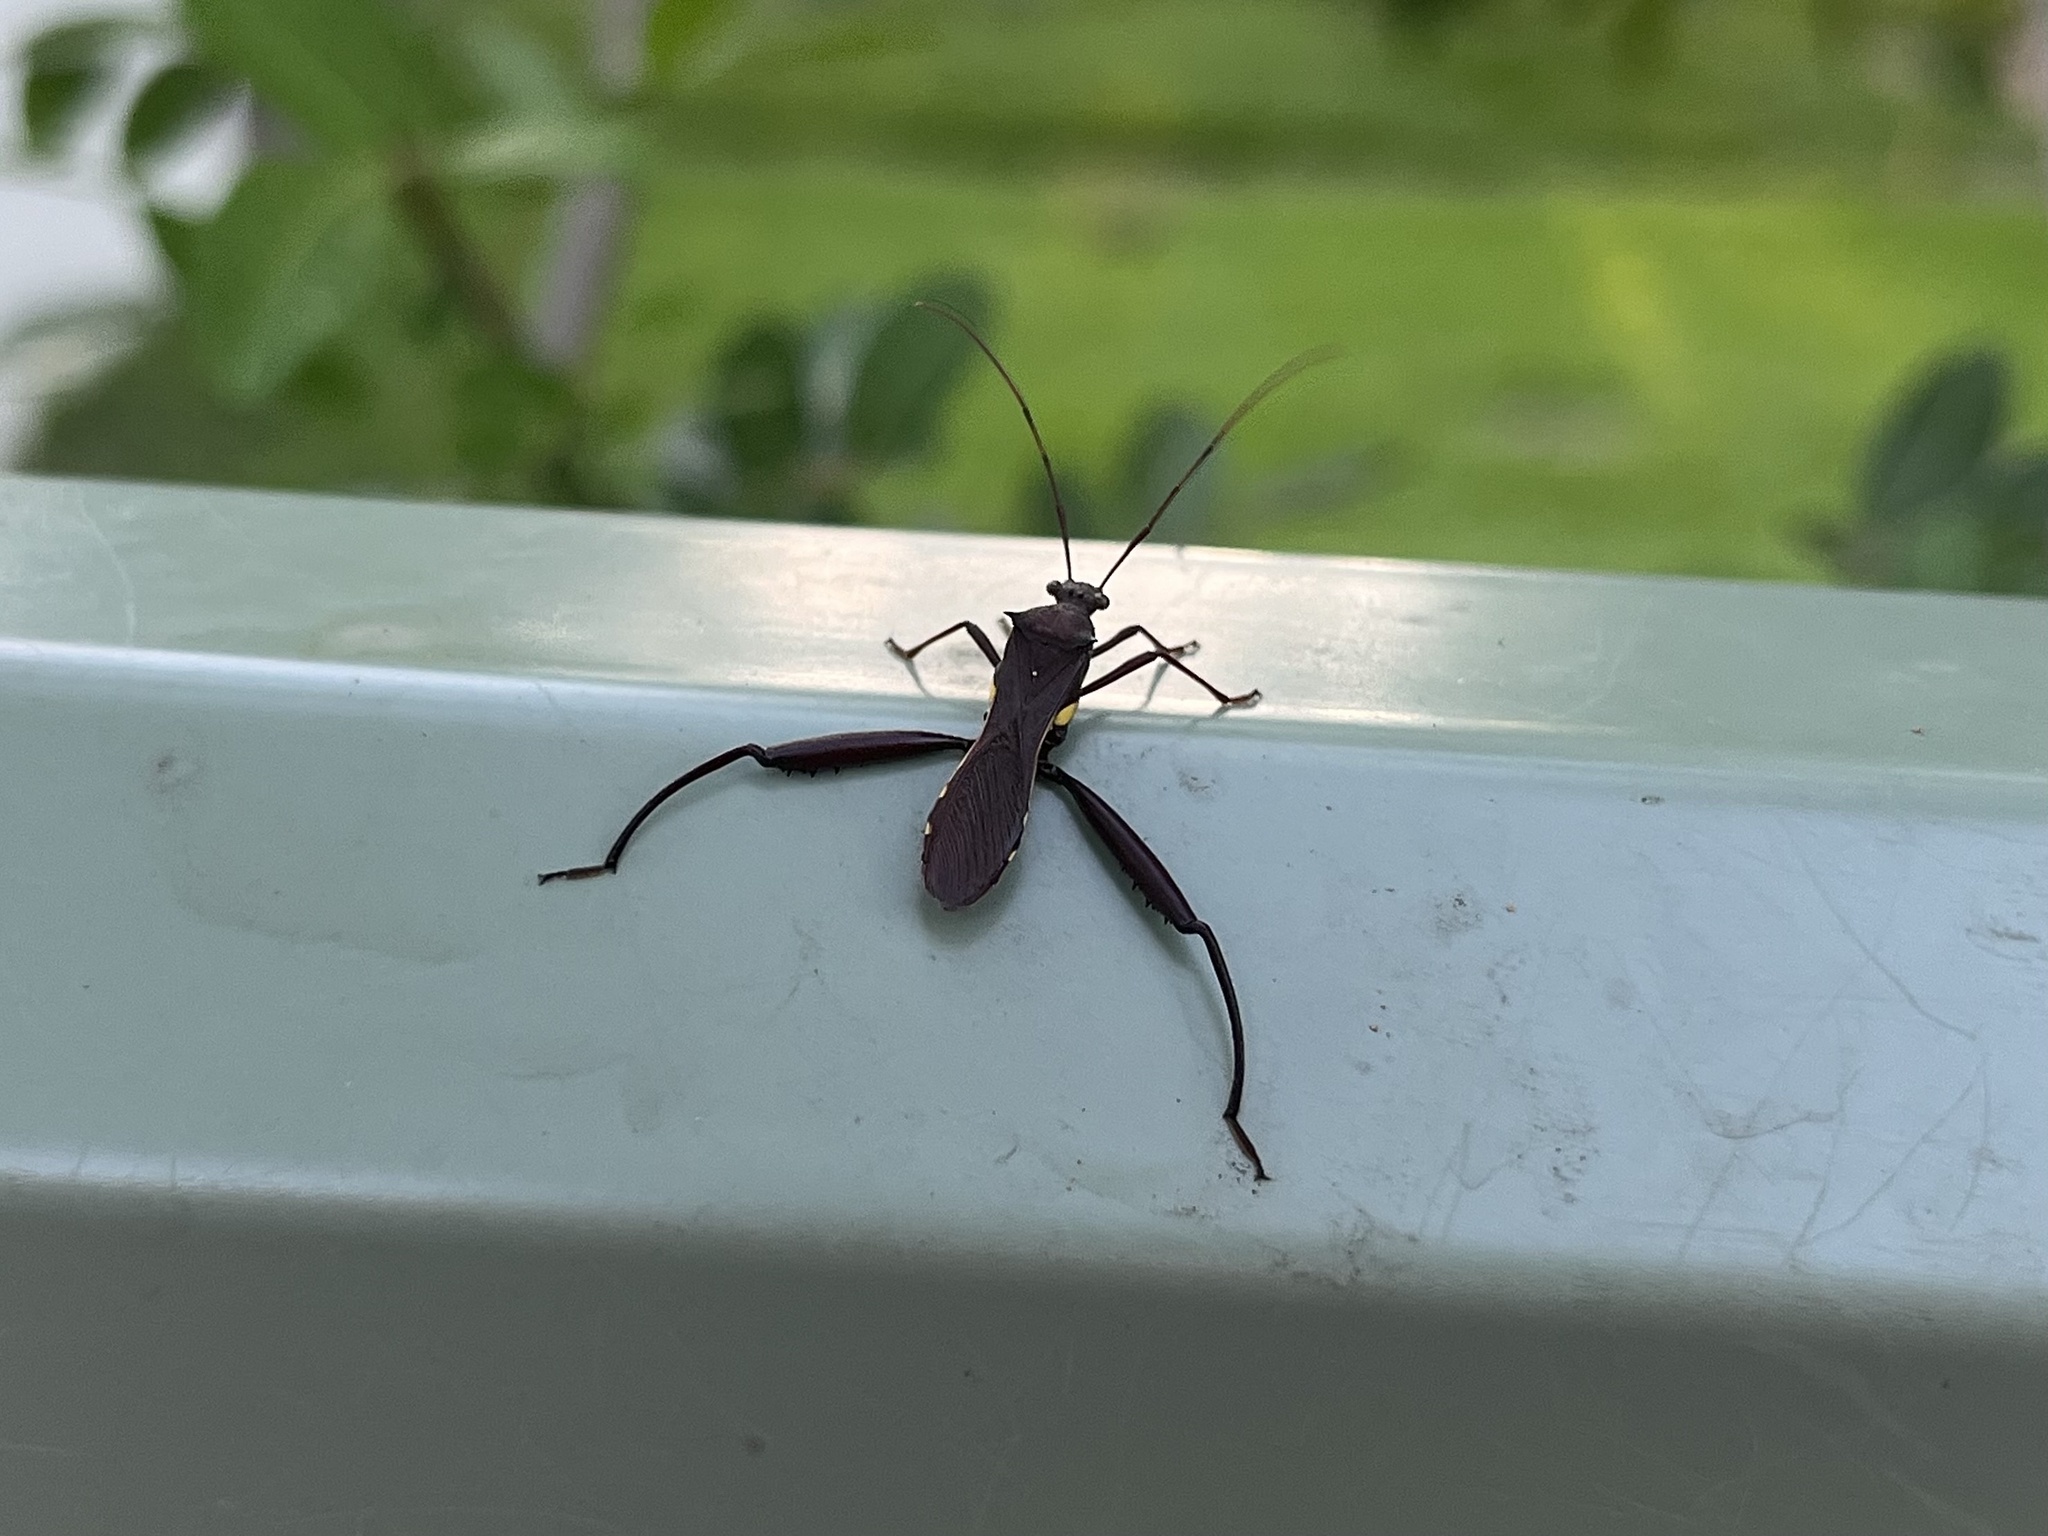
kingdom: Animalia
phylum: Arthropoda
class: Insecta
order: Hemiptera
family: Alydidae
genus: Riptortus
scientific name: Riptortus serripes
